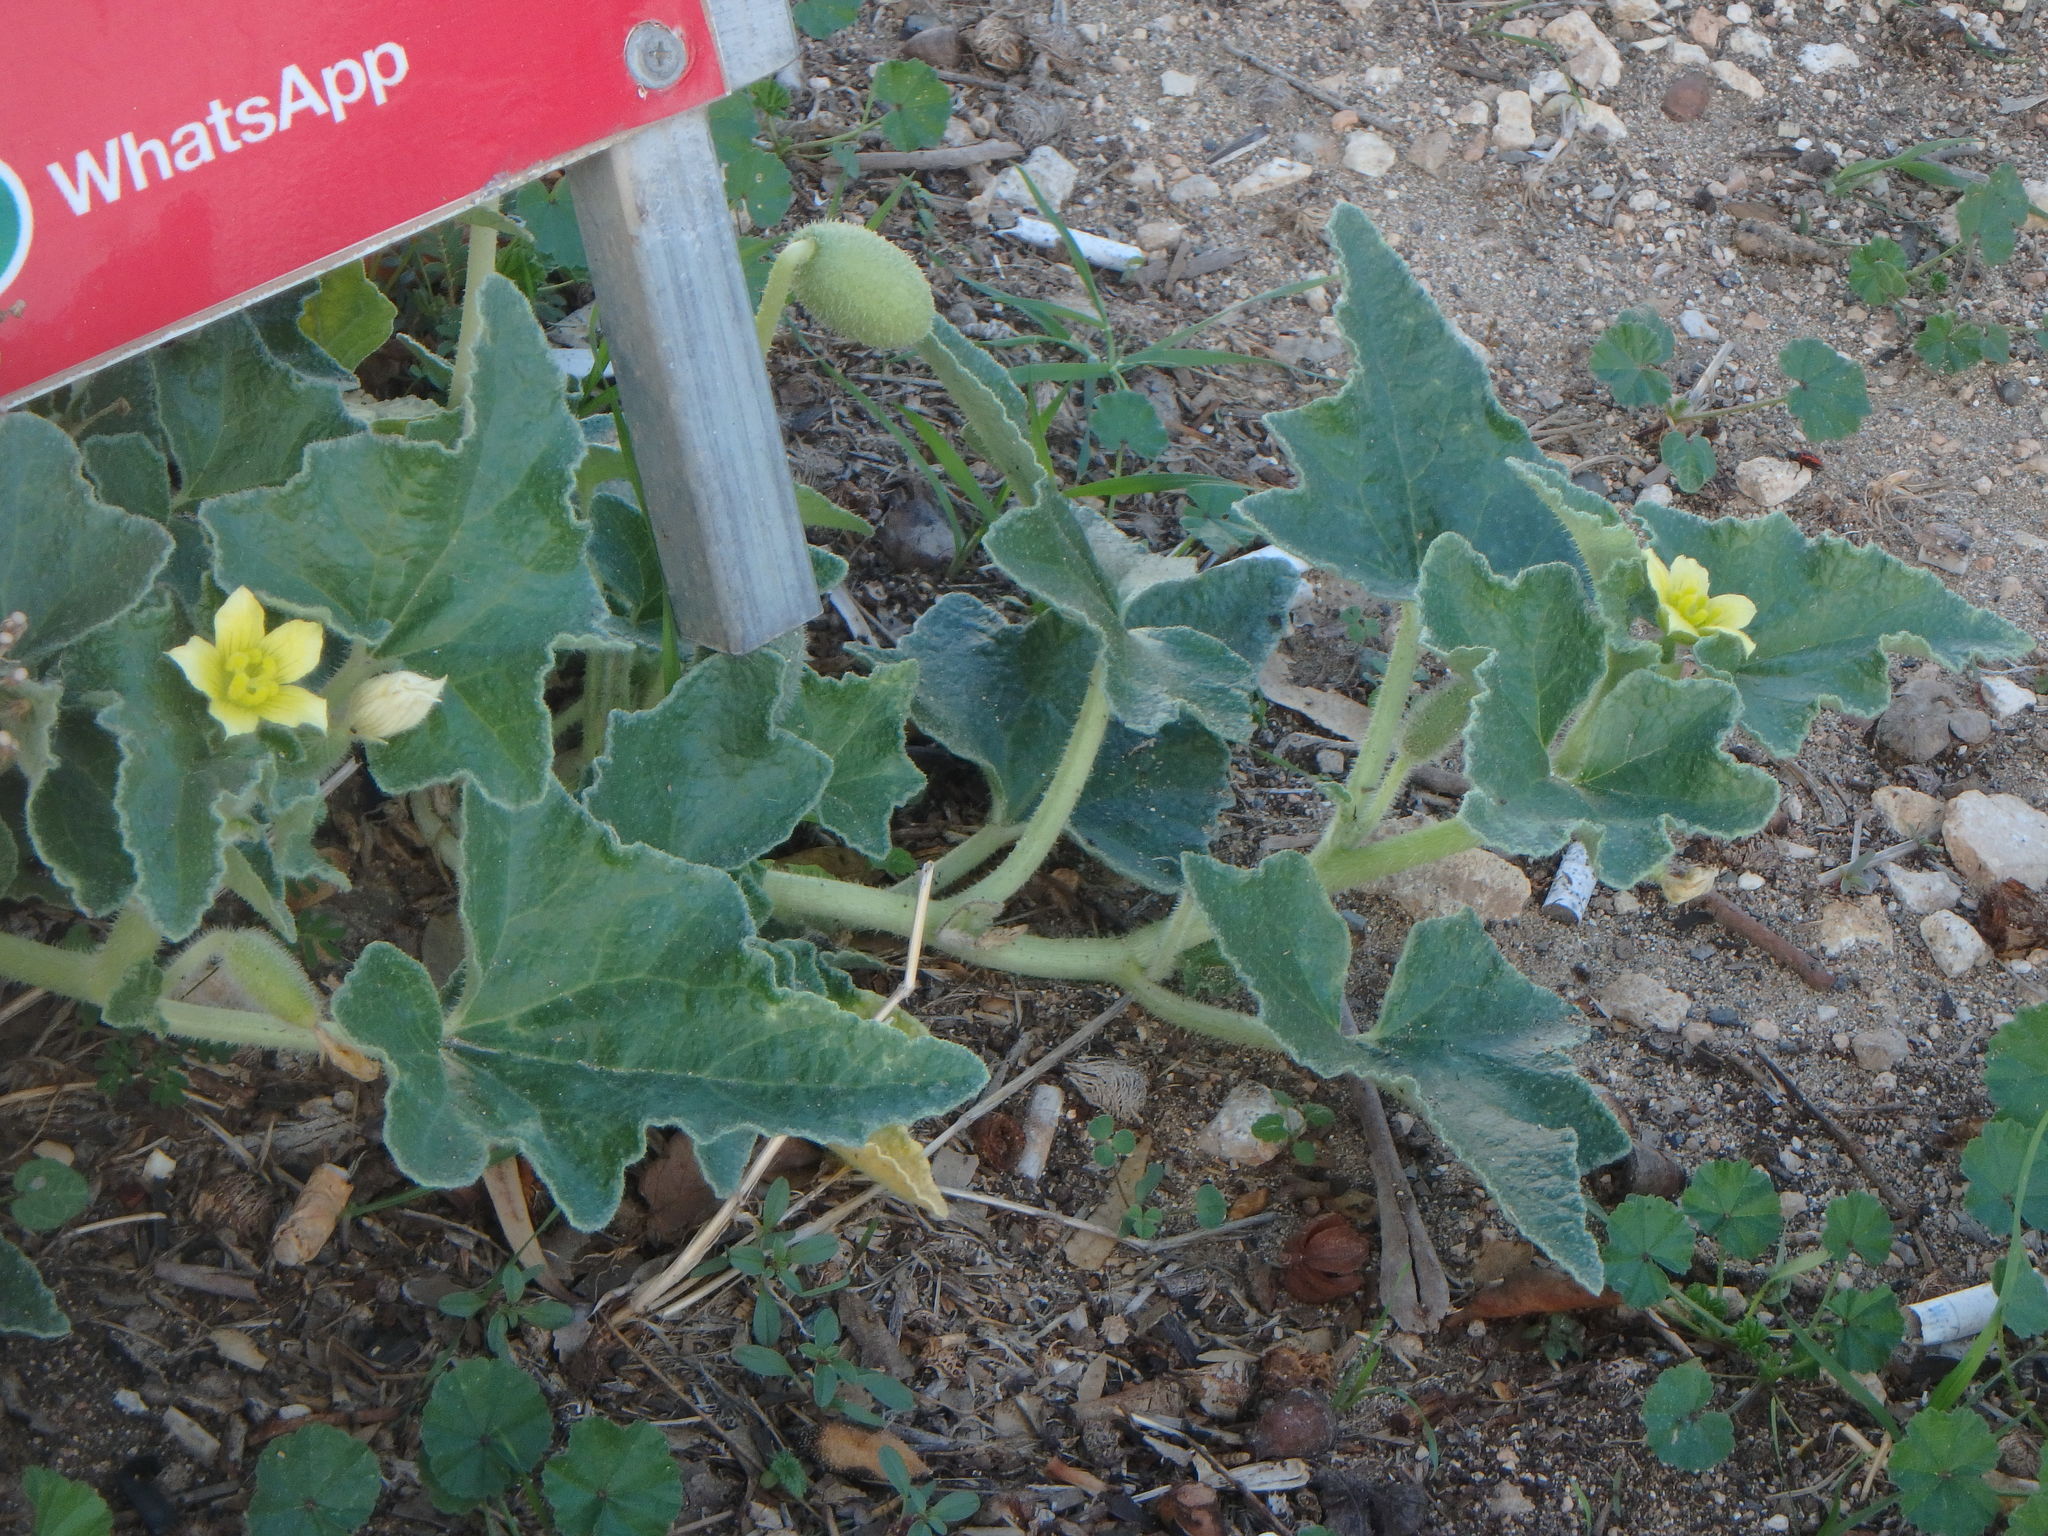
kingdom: Plantae
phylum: Tracheophyta
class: Magnoliopsida
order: Cucurbitales
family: Cucurbitaceae
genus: Ecballium
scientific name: Ecballium elaterium
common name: Squirting cucumber
